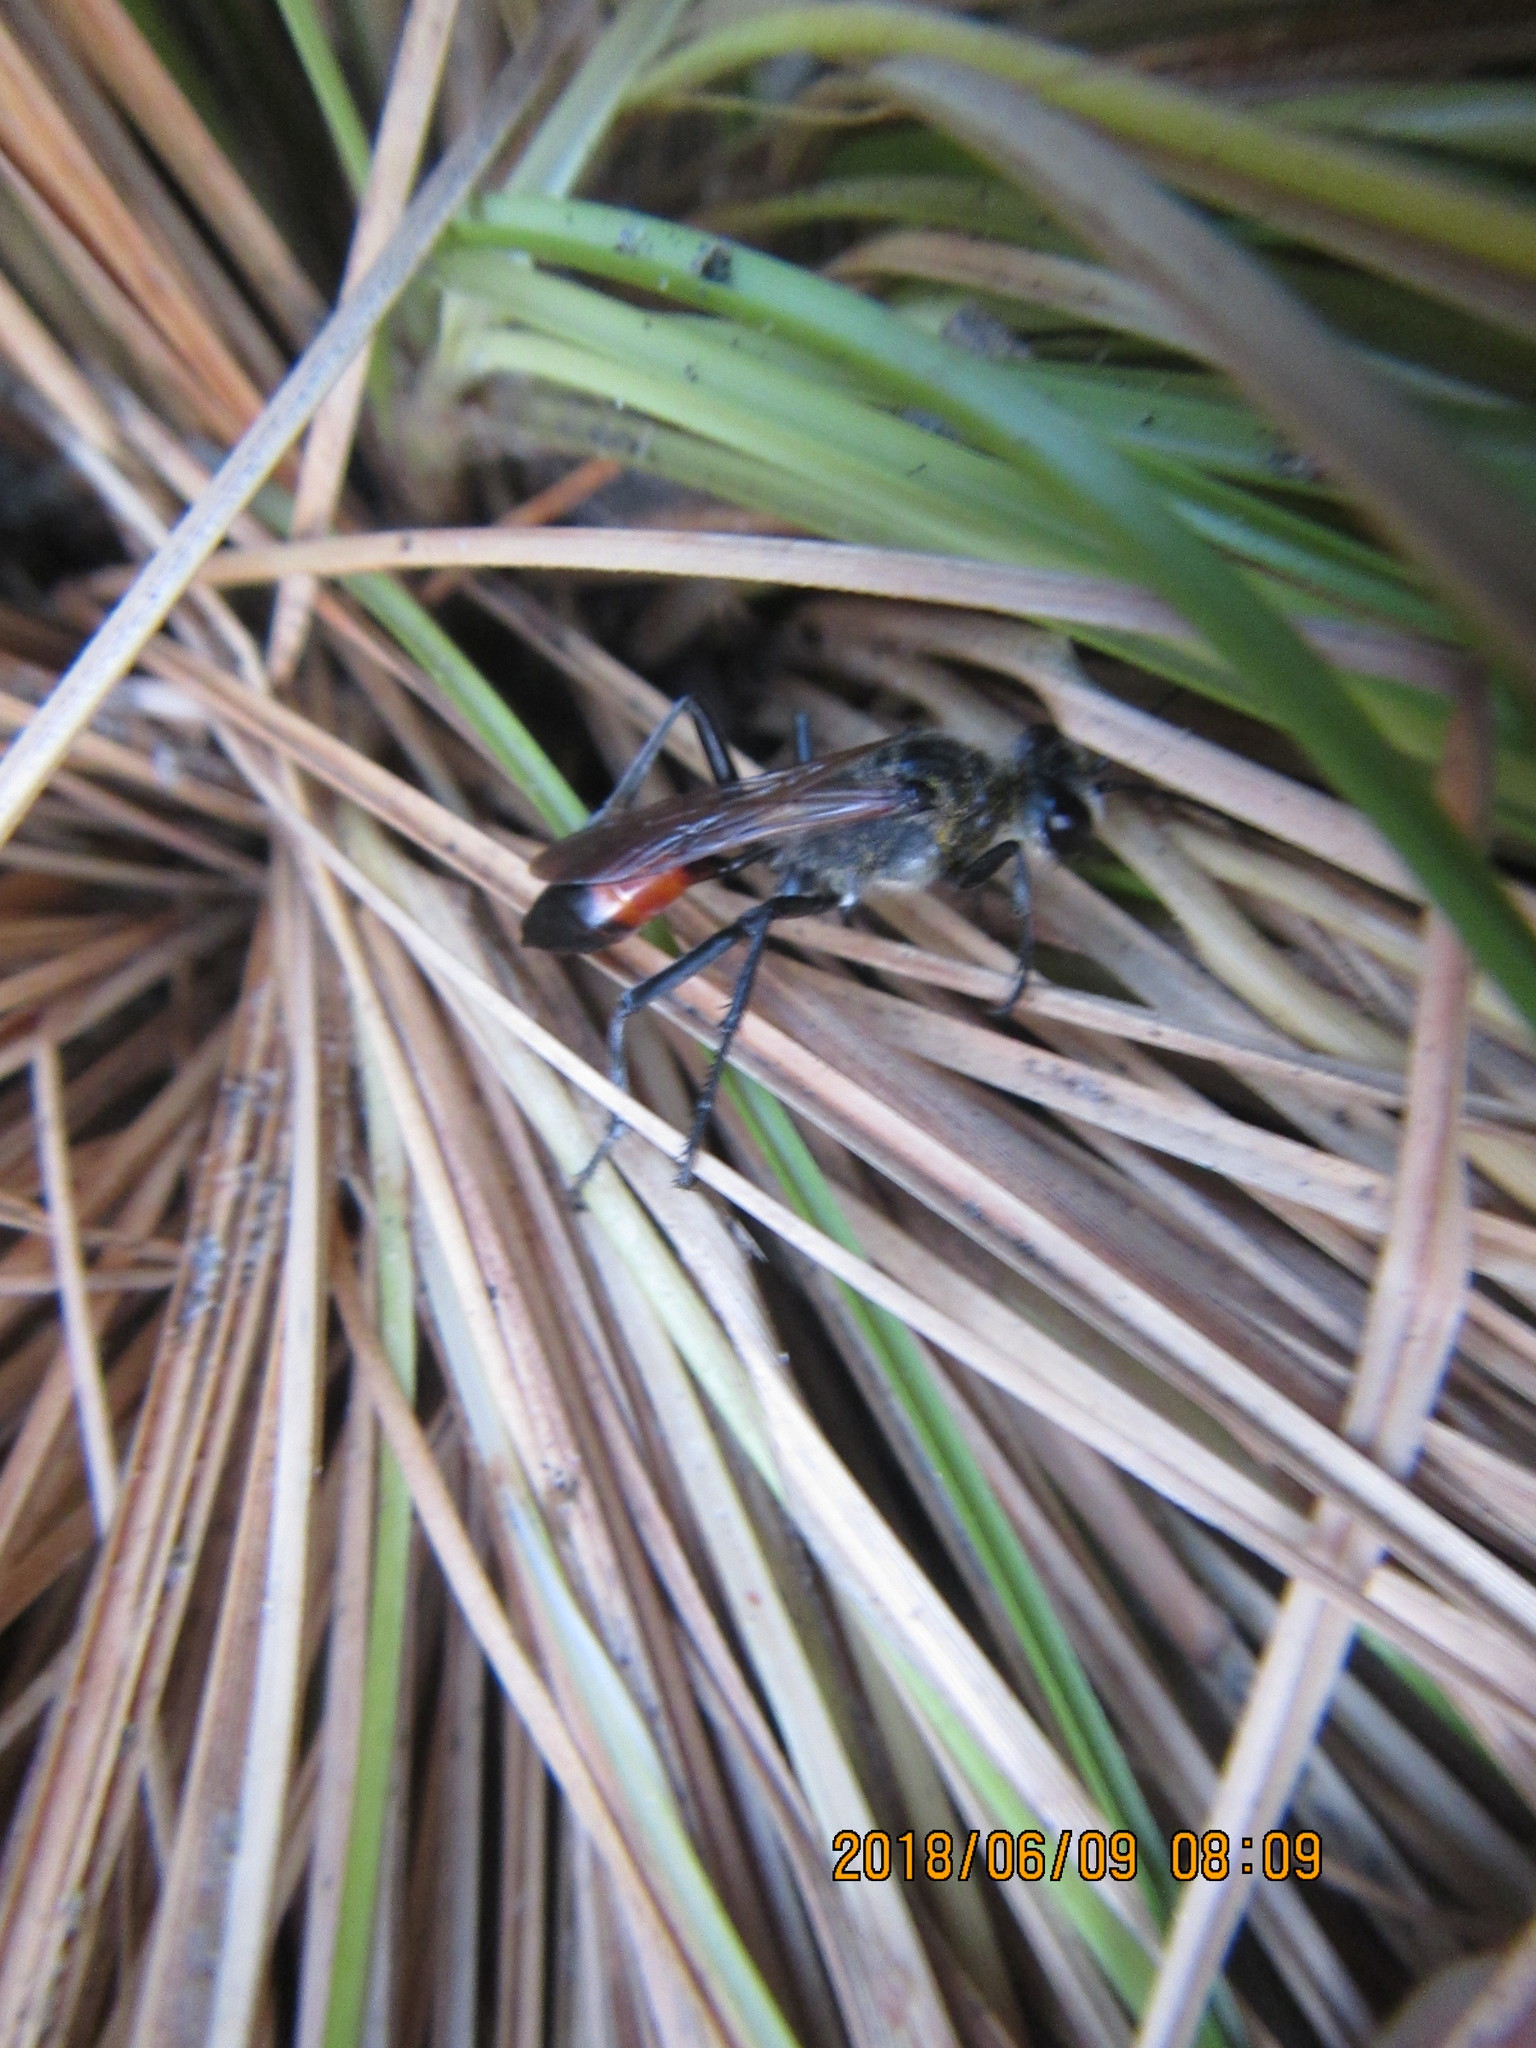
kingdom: Animalia
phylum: Arthropoda
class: Insecta
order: Hymenoptera
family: Sphecidae
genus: Podalonia
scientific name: Podalonia tydei
